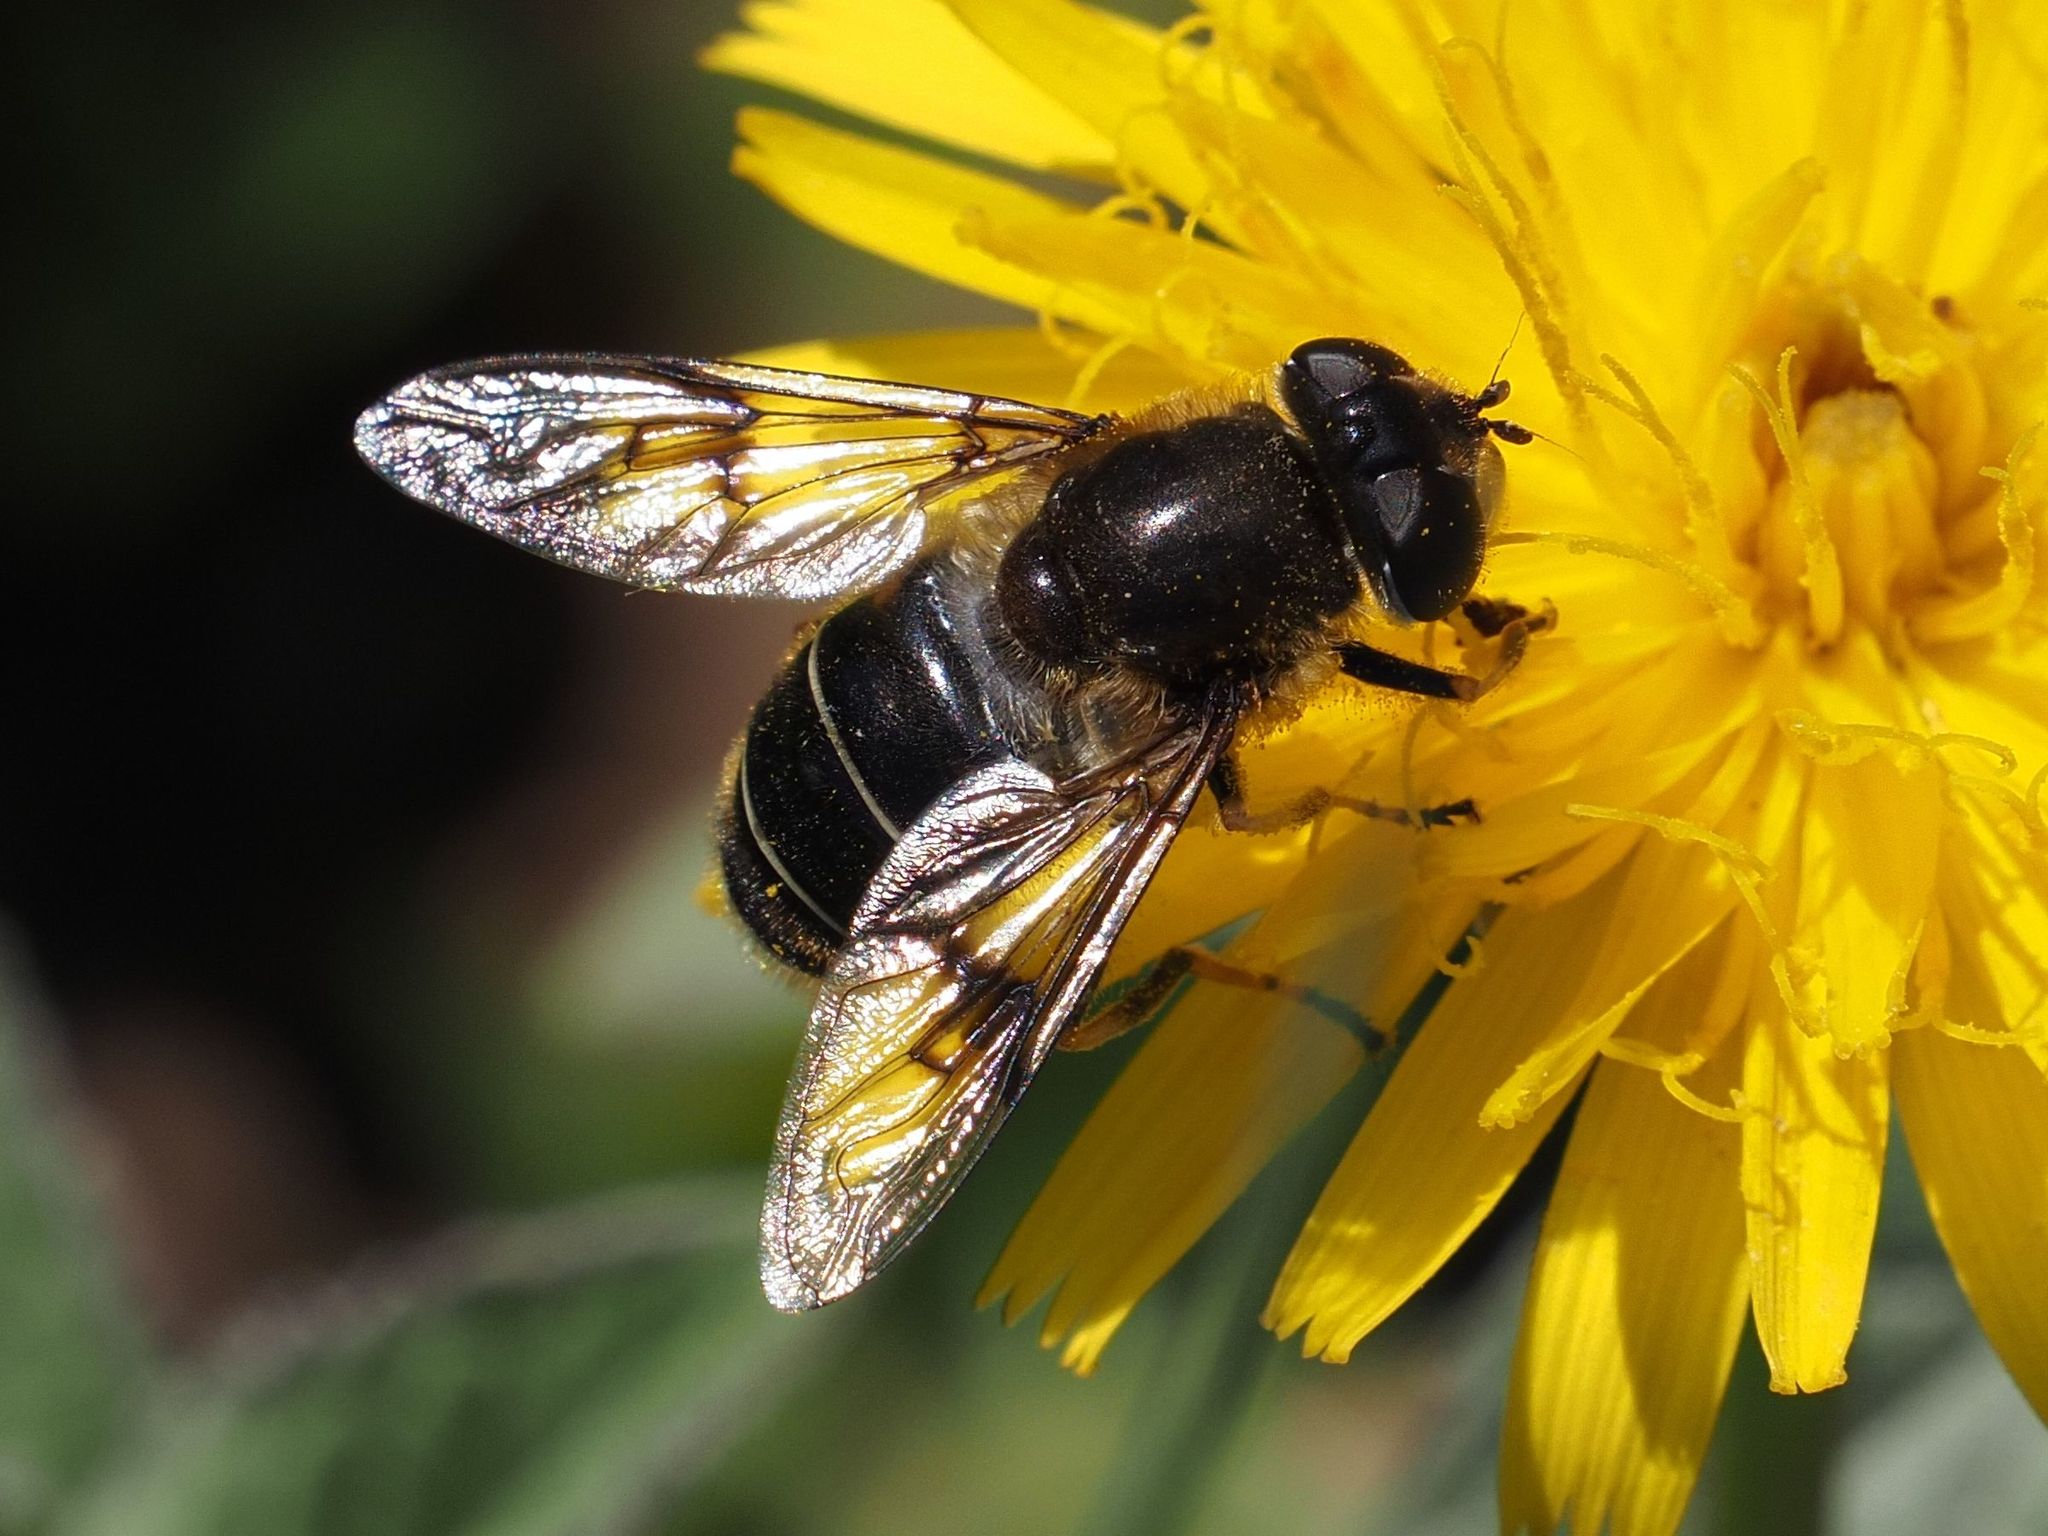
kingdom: Animalia
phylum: Arthropoda
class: Insecta
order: Diptera
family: Syrphidae
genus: Eristalis
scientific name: Eristalis rupium
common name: Hover fly
